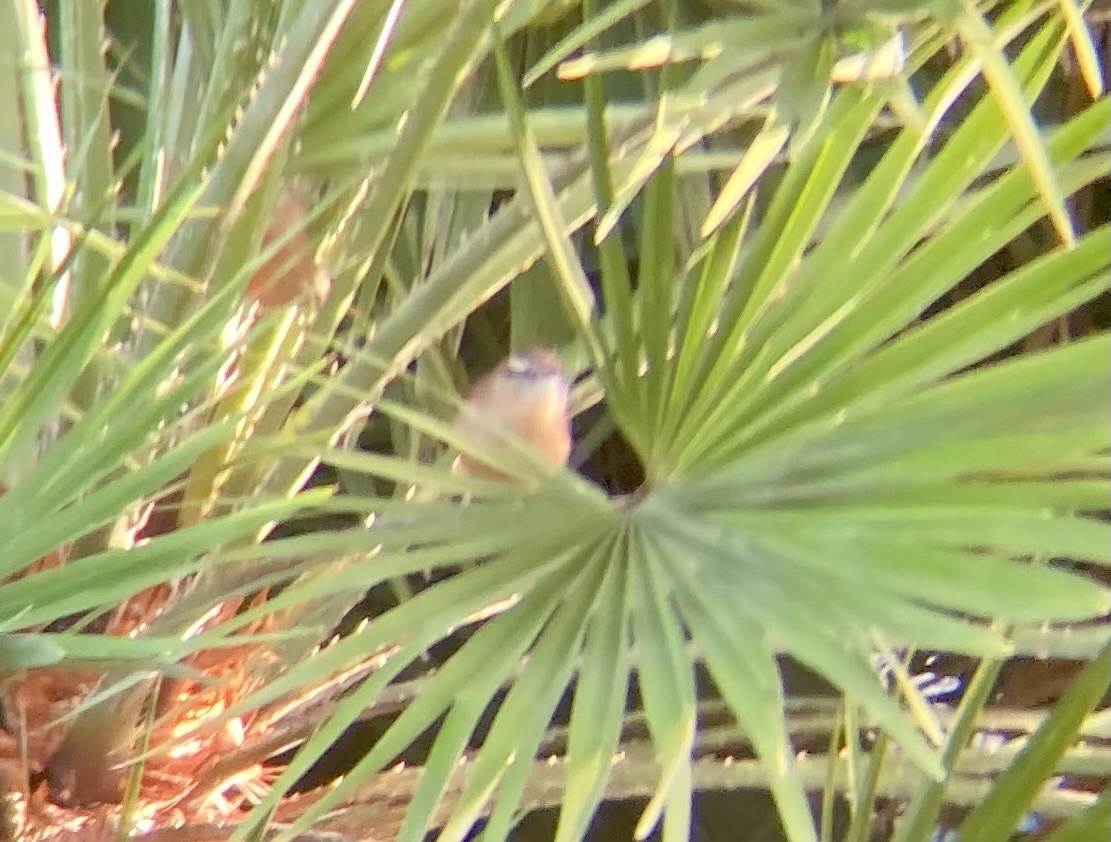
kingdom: Animalia
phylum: Chordata
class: Aves
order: Passeriformes
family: Troglodytidae
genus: Thryothorus
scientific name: Thryothorus ludovicianus
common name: Carolina wren
